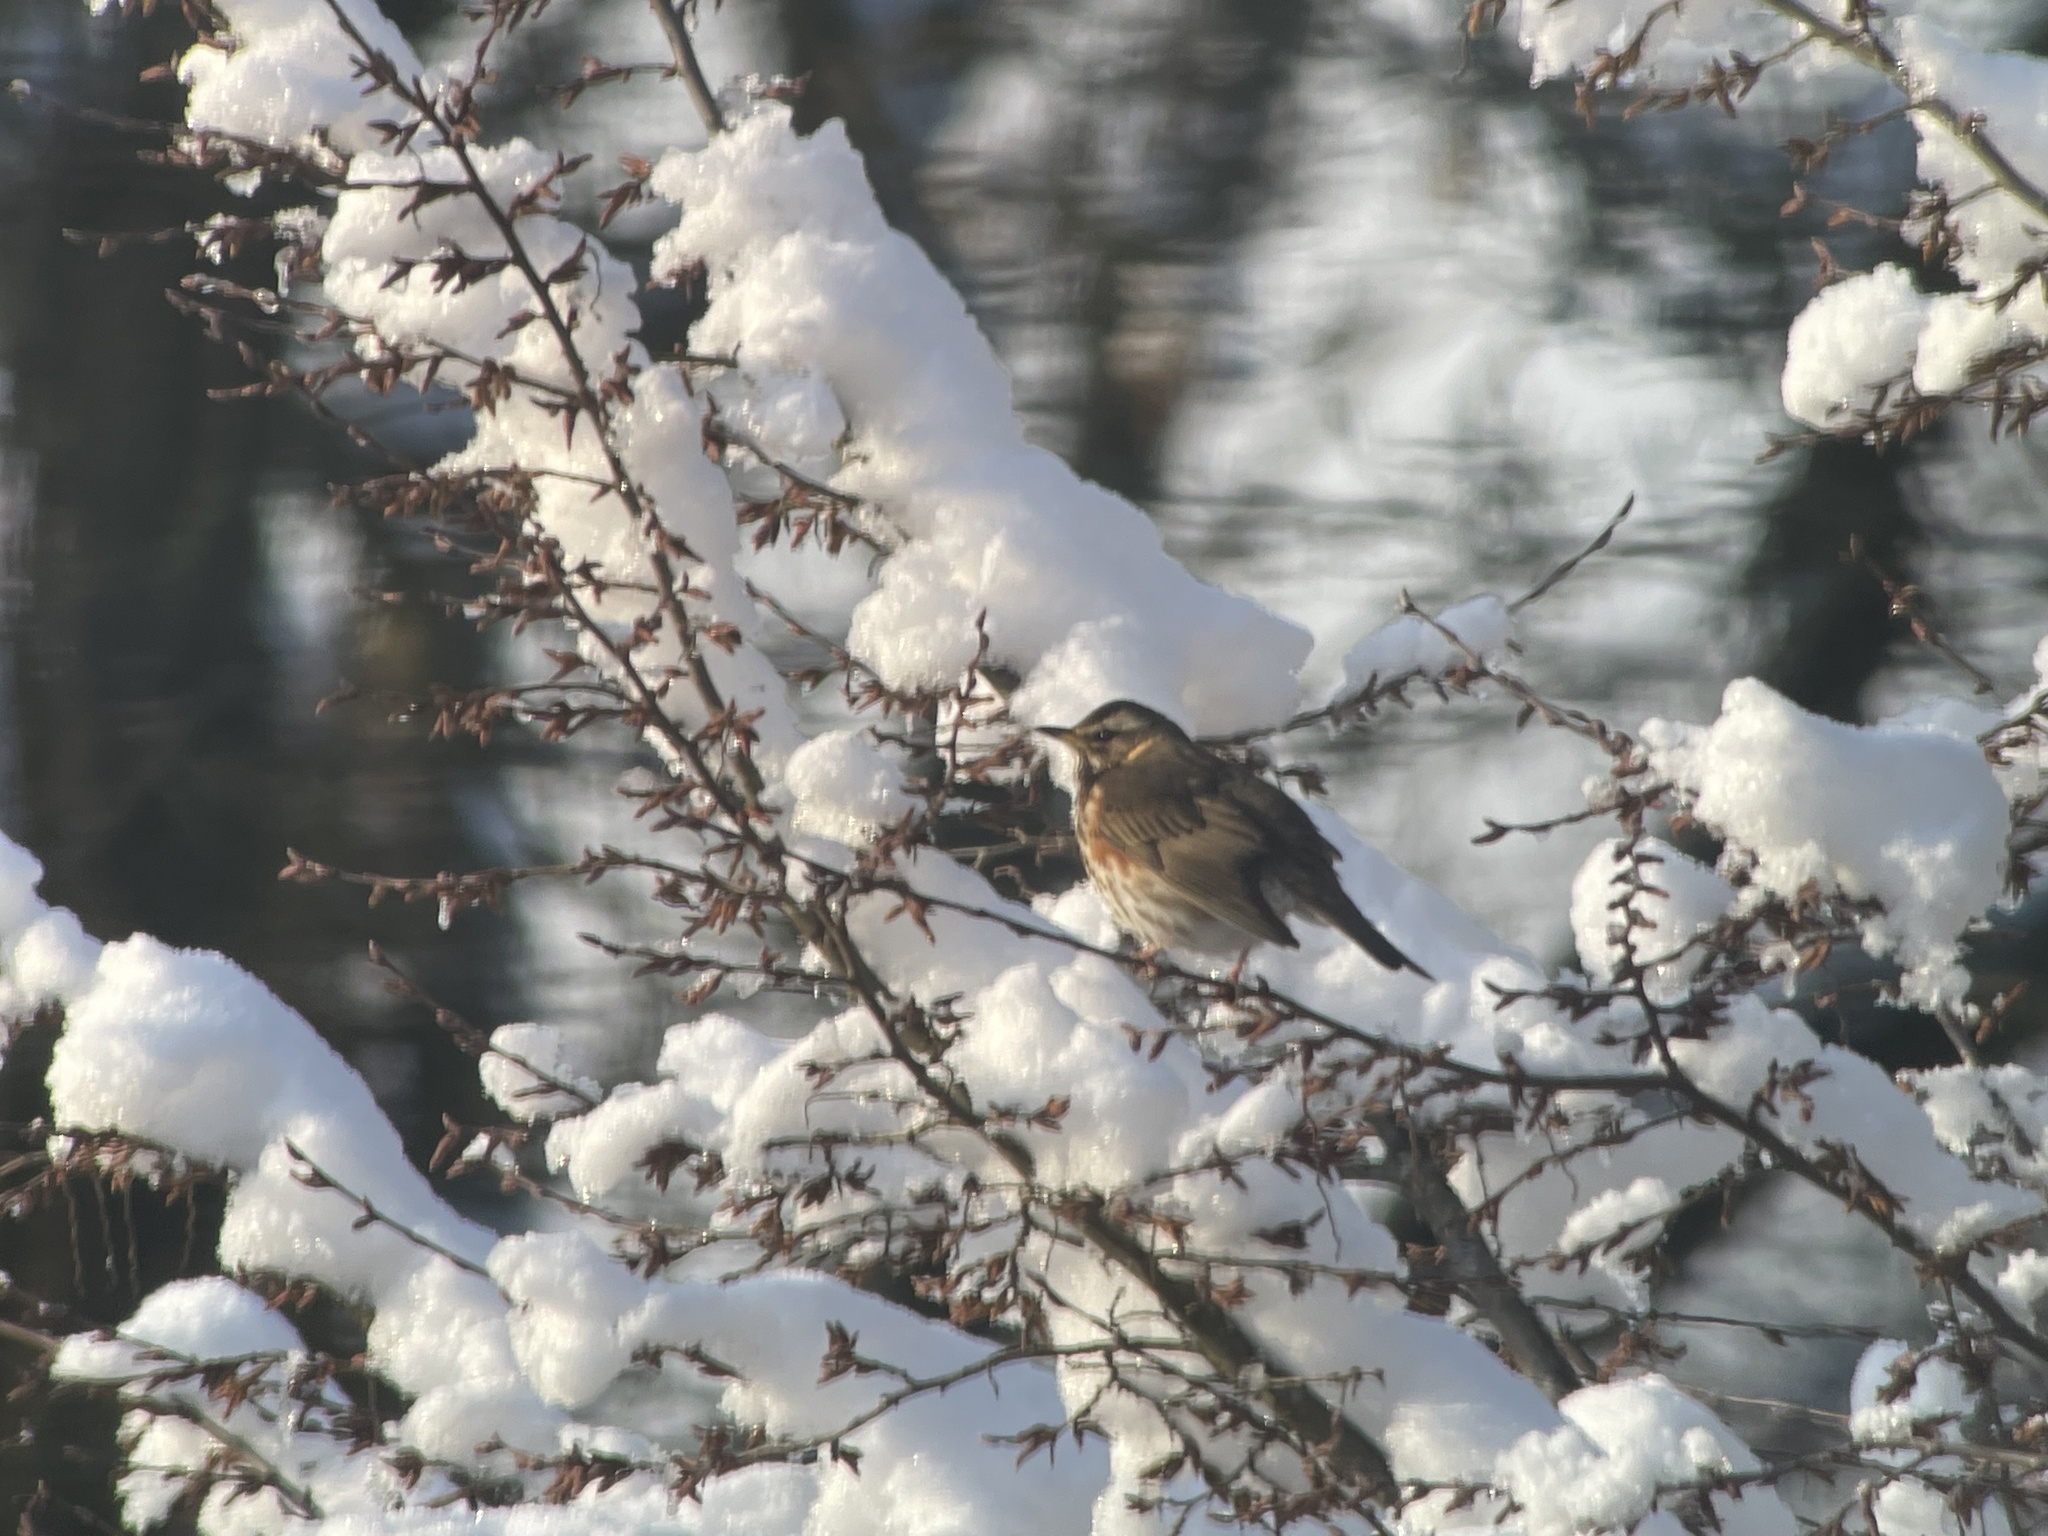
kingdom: Animalia
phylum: Chordata
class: Aves
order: Passeriformes
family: Turdidae
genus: Turdus
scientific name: Turdus iliacus
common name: Redwing
